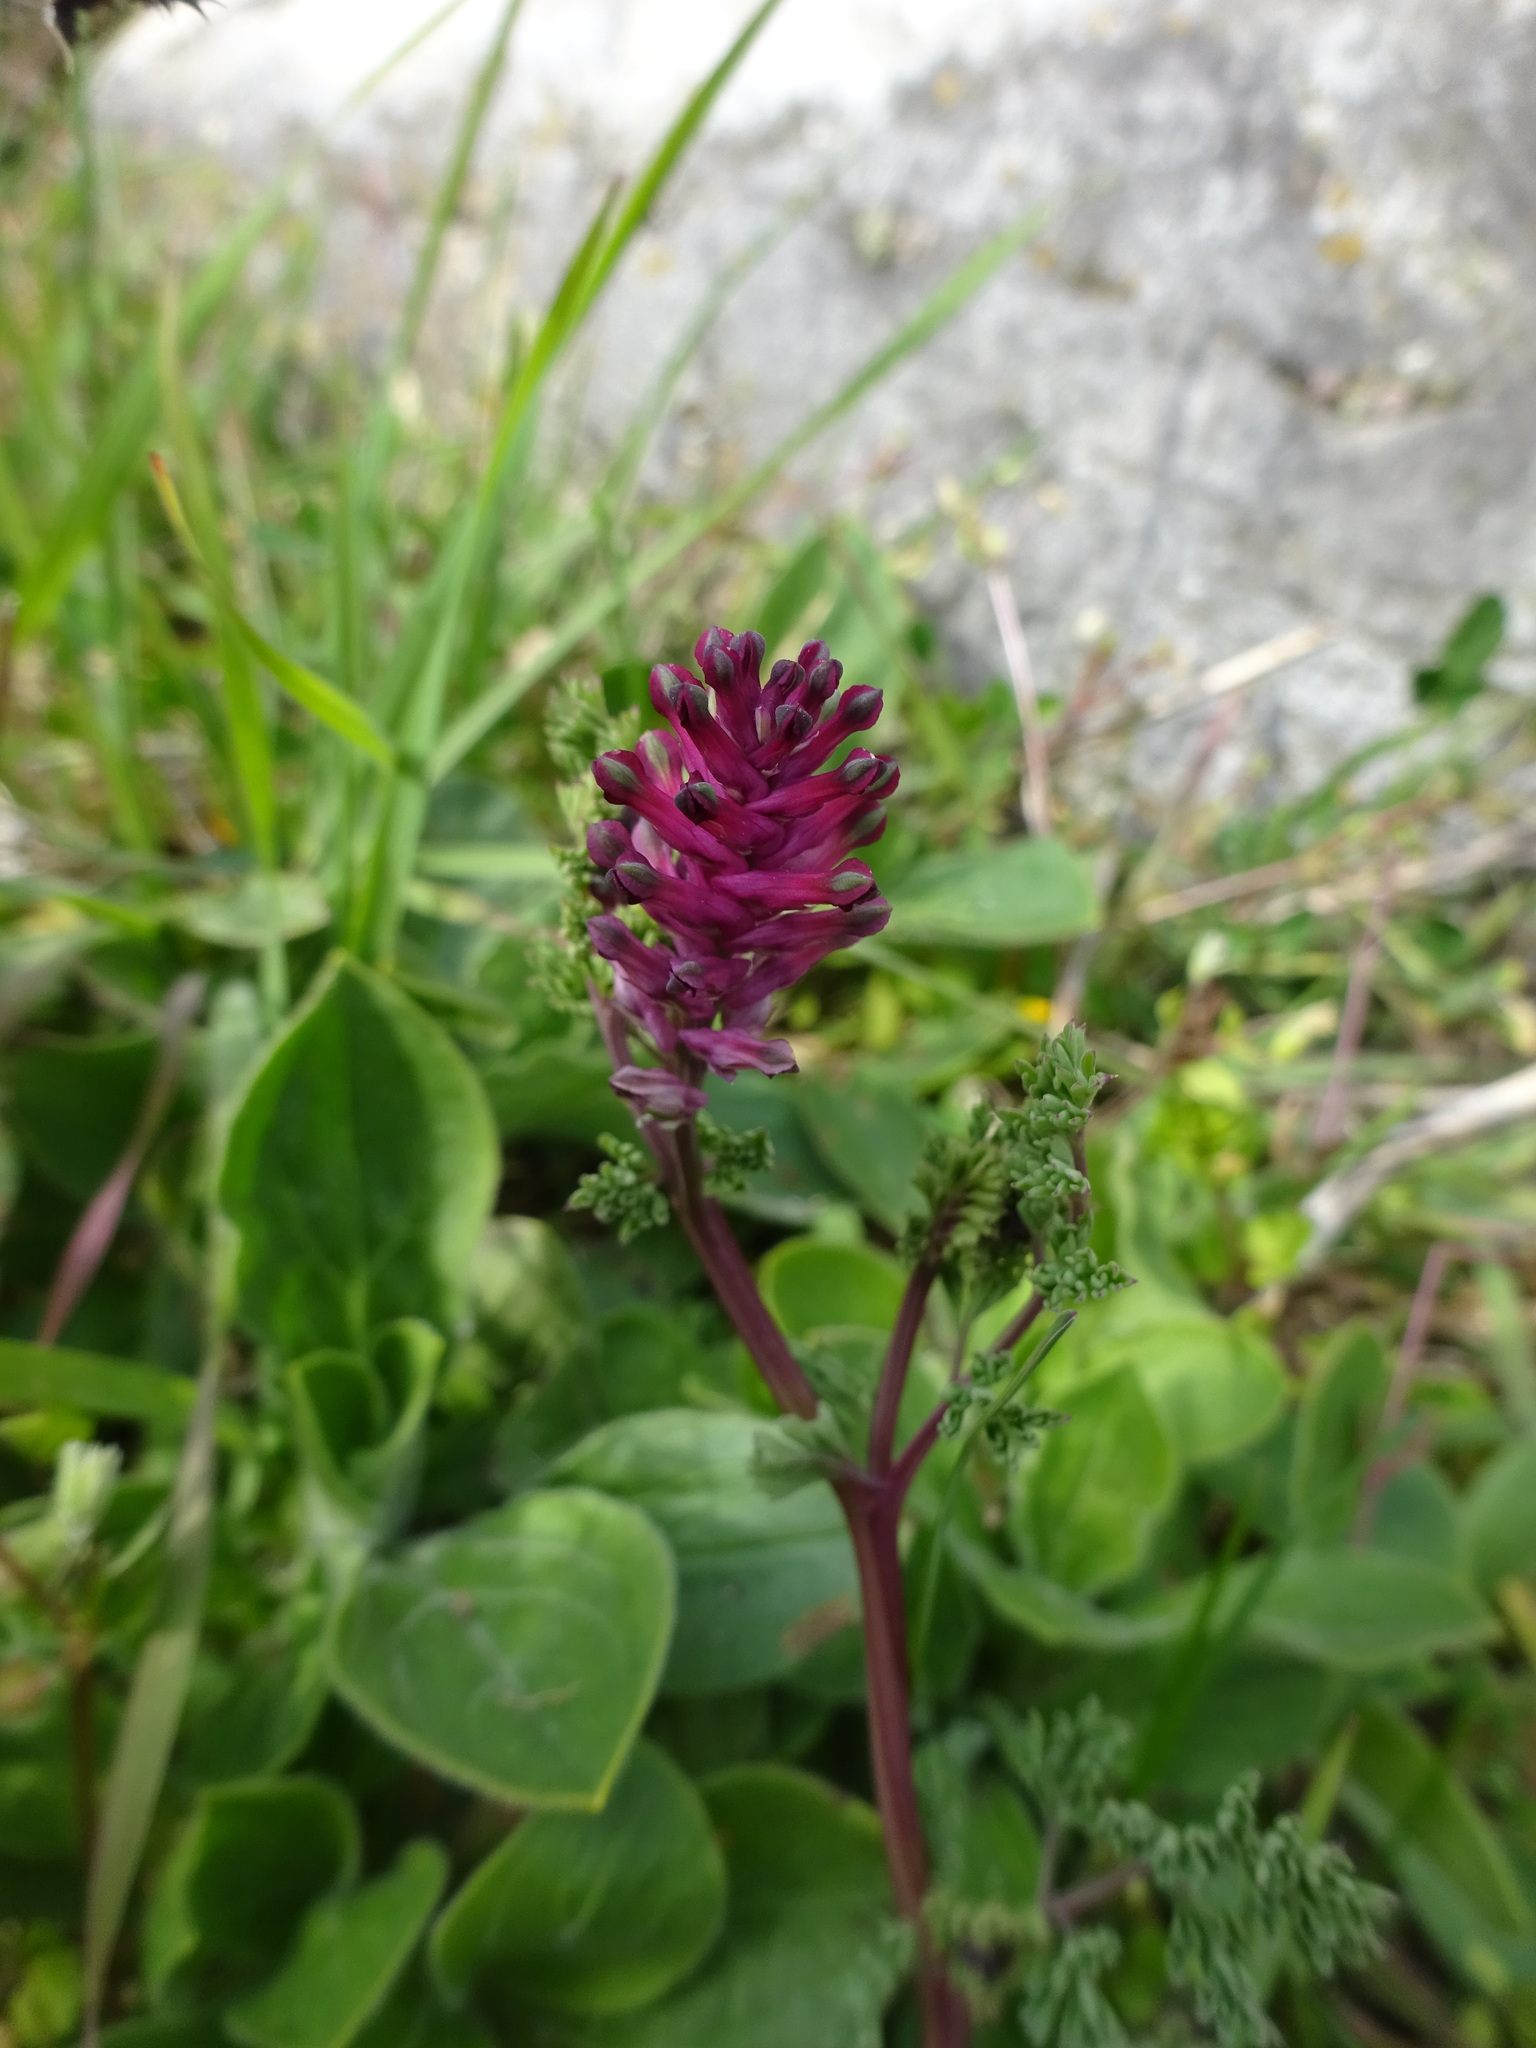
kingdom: Plantae
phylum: Tracheophyta
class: Magnoliopsida
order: Ranunculales
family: Papaveraceae
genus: Fumaria
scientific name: Fumaria officinalis
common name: Common fumitory
